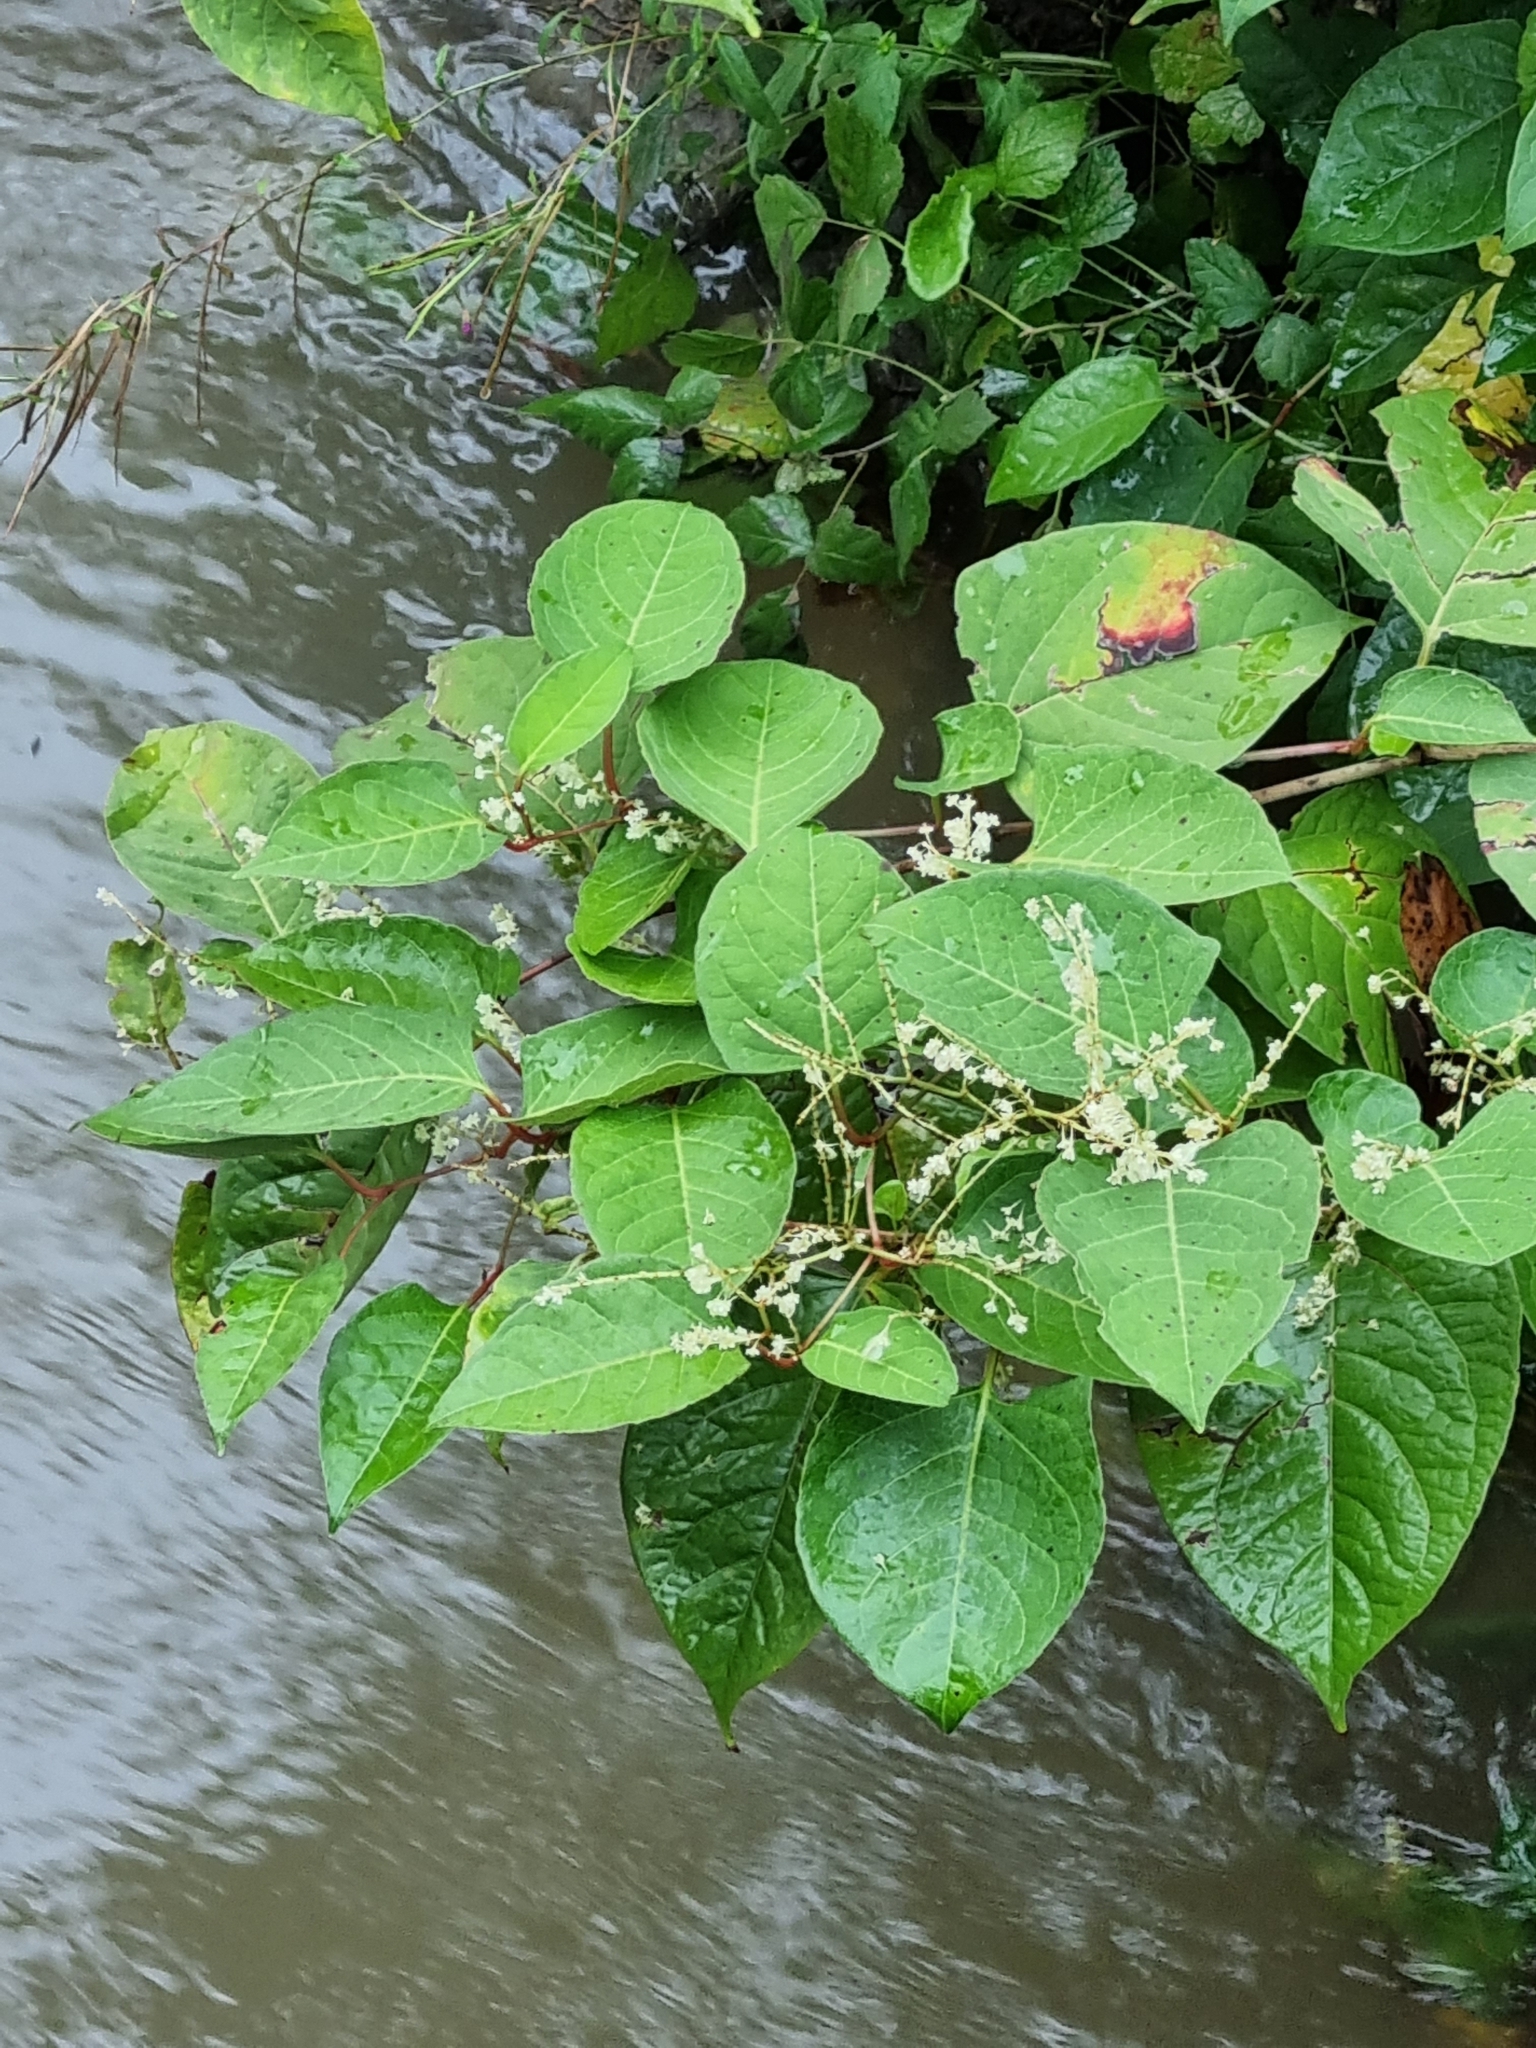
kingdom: Plantae
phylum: Tracheophyta
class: Magnoliopsida
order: Caryophyllales
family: Polygonaceae
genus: Reynoutria
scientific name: Reynoutria japonica
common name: Japanese knotweed
